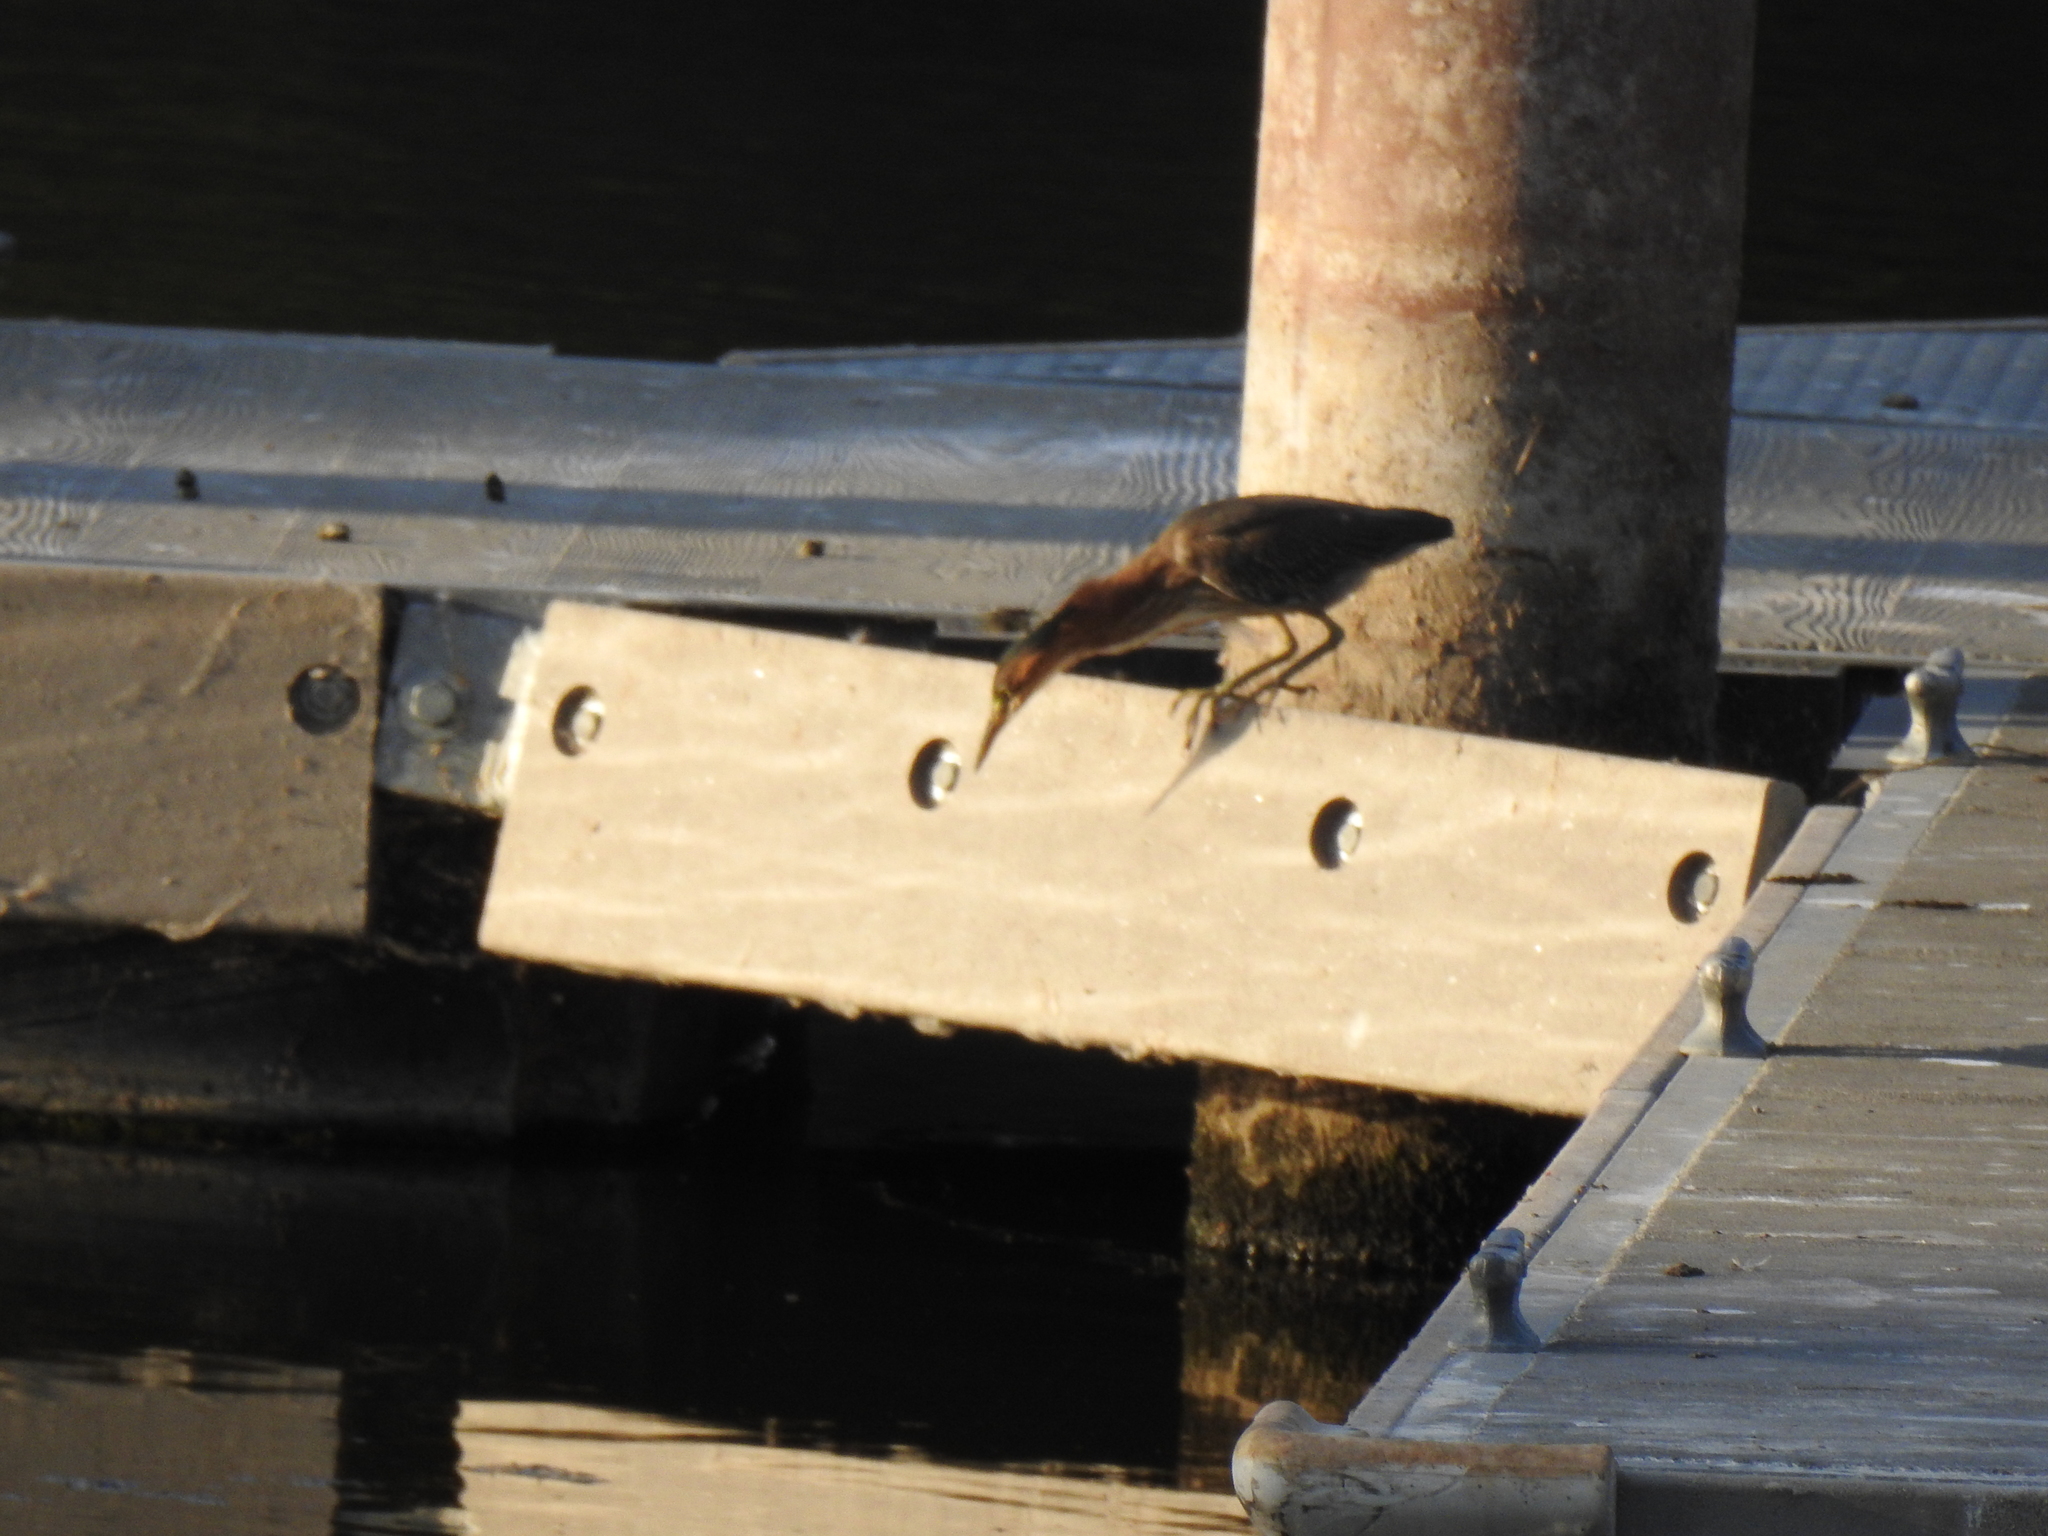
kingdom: Animalia
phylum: Chordata
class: Aves
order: Pelecaniformes
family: Ardeidae
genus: Butorides
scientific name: Butorides virescens
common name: Green heron
